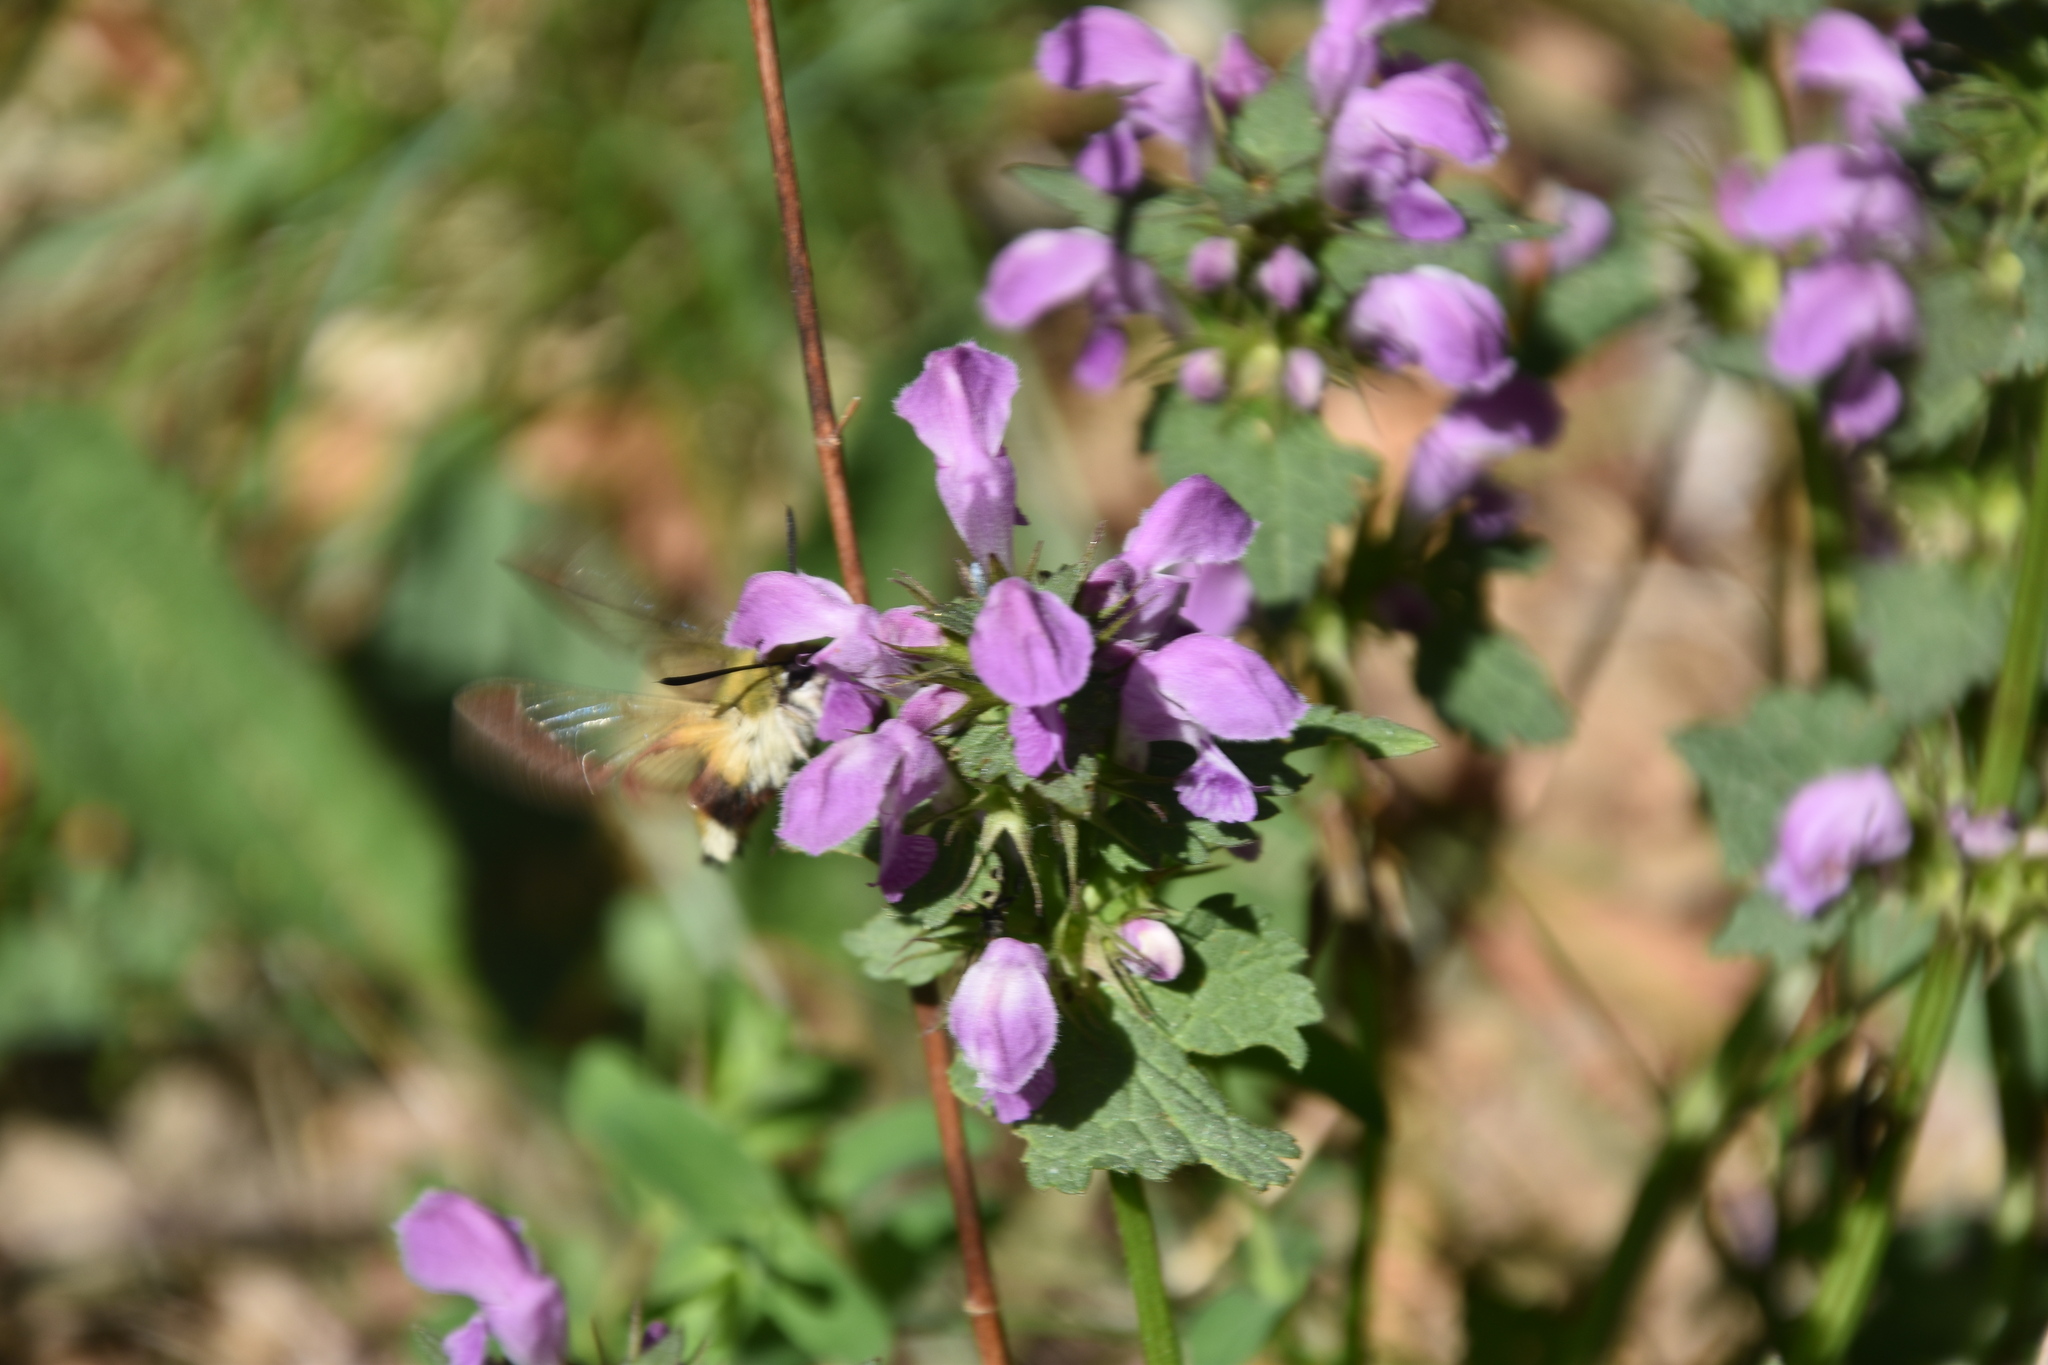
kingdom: Animalia
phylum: Arthropoda
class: Insecta
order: Lepidoptera
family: Sphingidae
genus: Hemaris
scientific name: Hemaris fuciformis
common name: Broad-bordered bee hawk-moth
